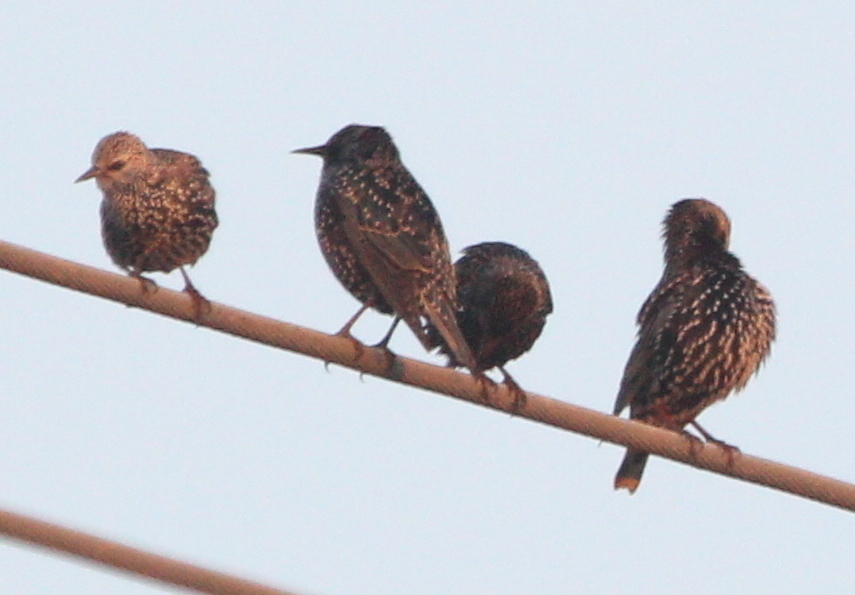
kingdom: Animalia
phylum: Chordata
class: Aves
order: Passeriformes
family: Sturnidae
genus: Sturnus
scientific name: Sturnus vulgaris
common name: Common starling
